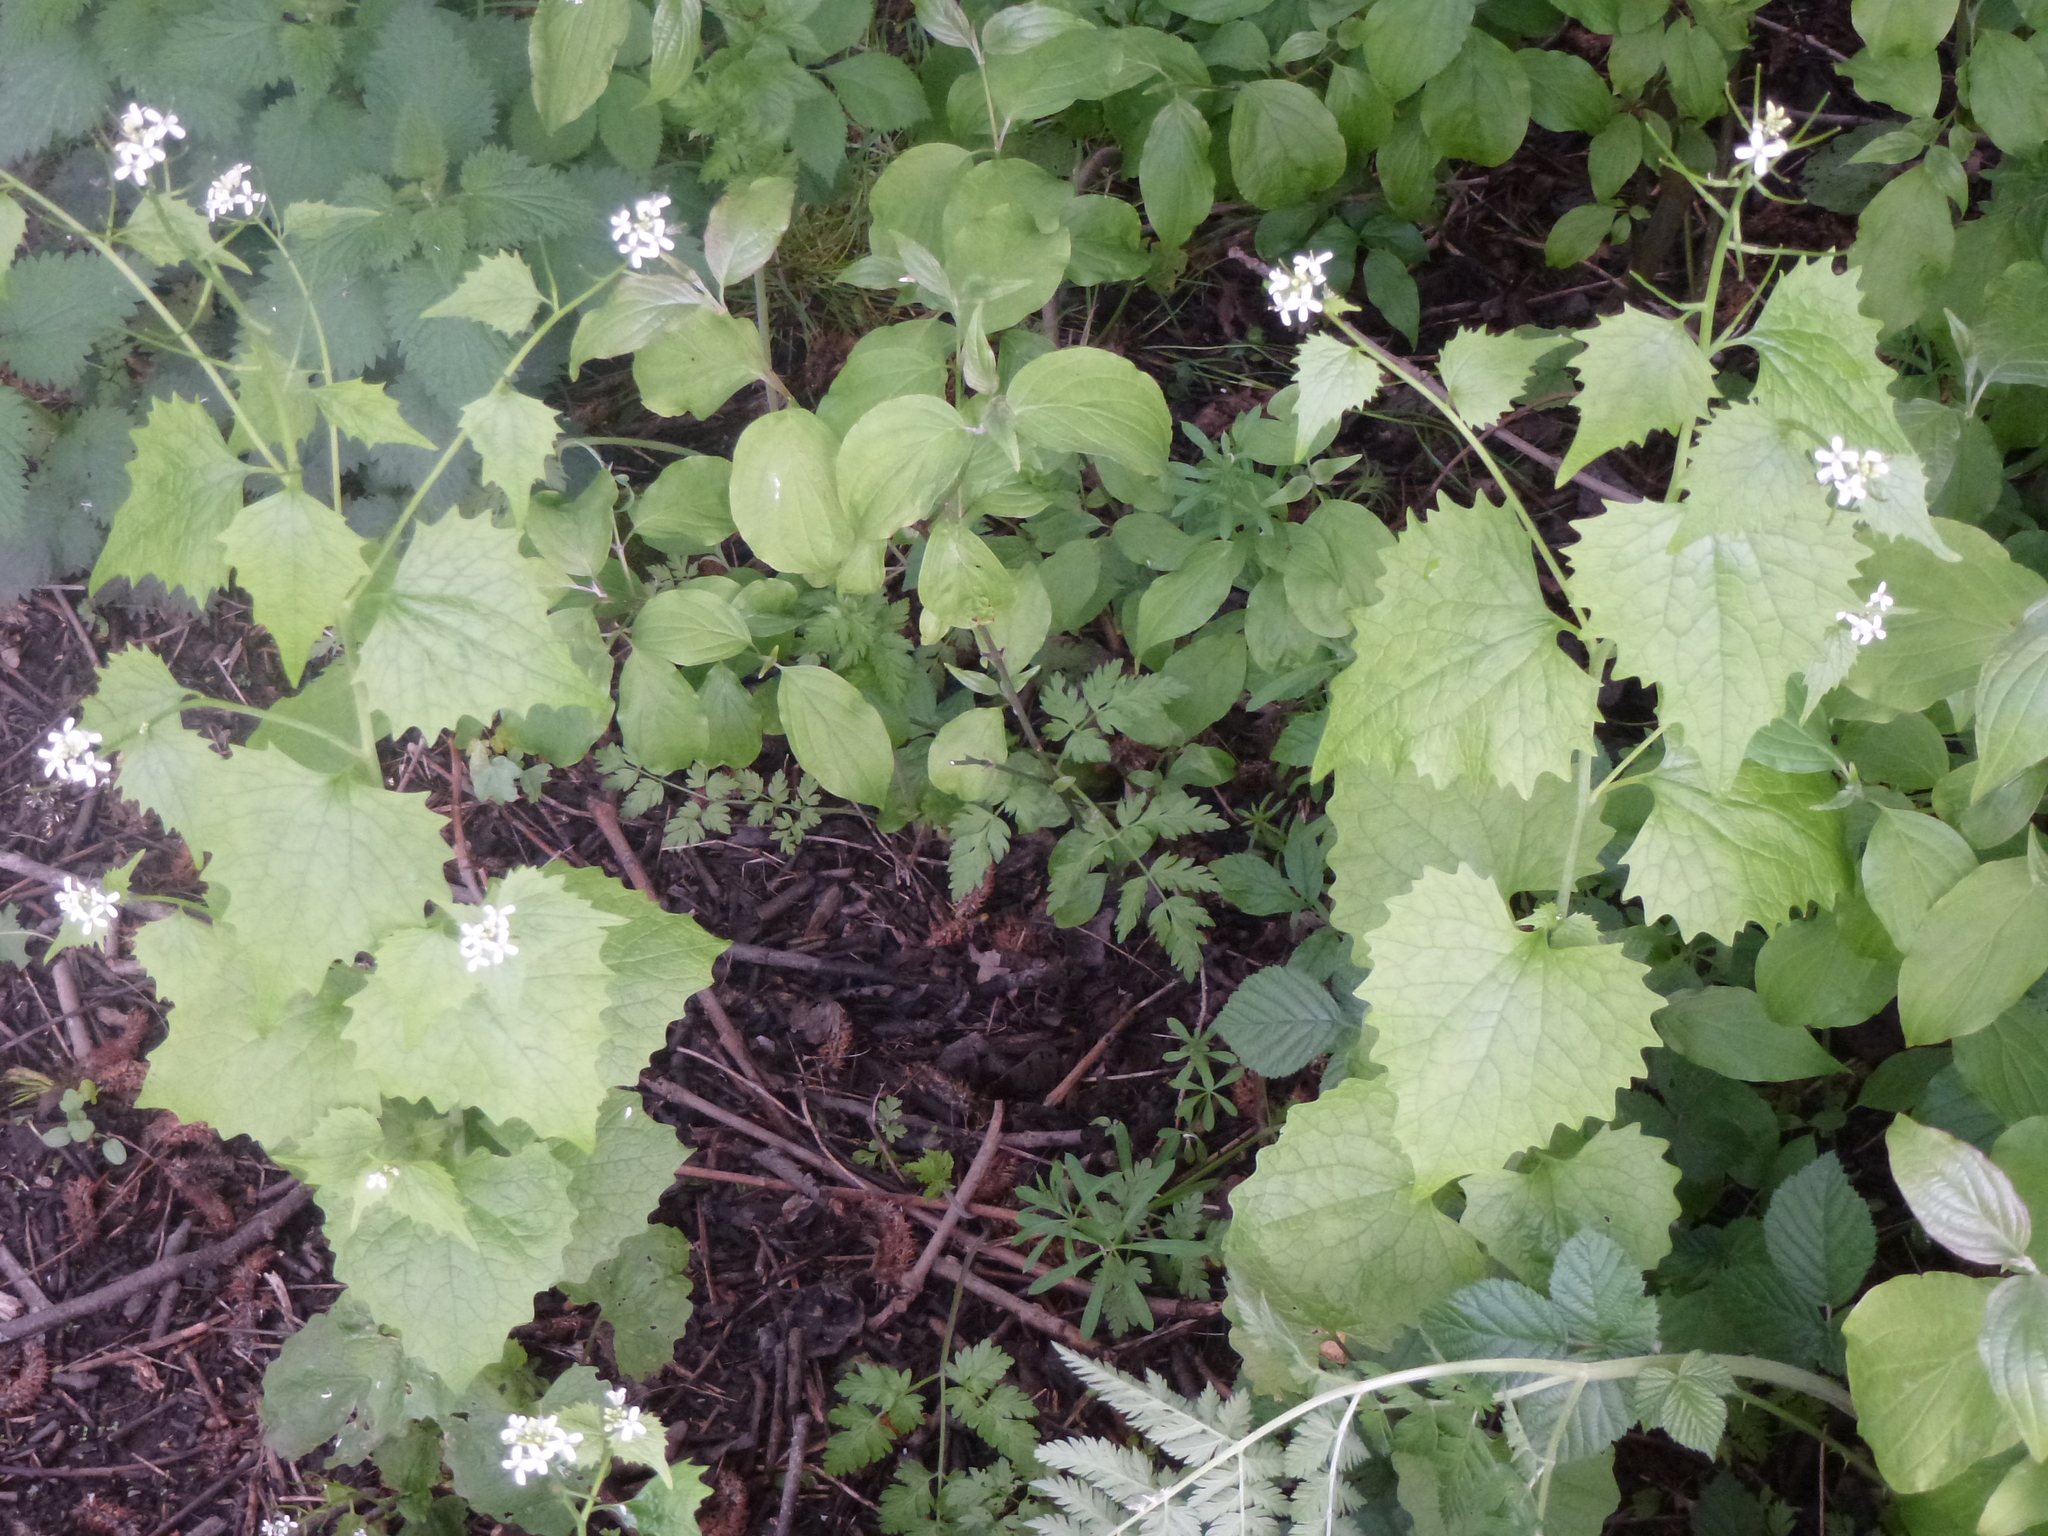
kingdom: Plantae
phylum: Tracheophyta
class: Magnoliopsida
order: Brassicales
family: Brassicaceae
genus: Alliaria
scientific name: Alliaria petiolata
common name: Garlic mustard
